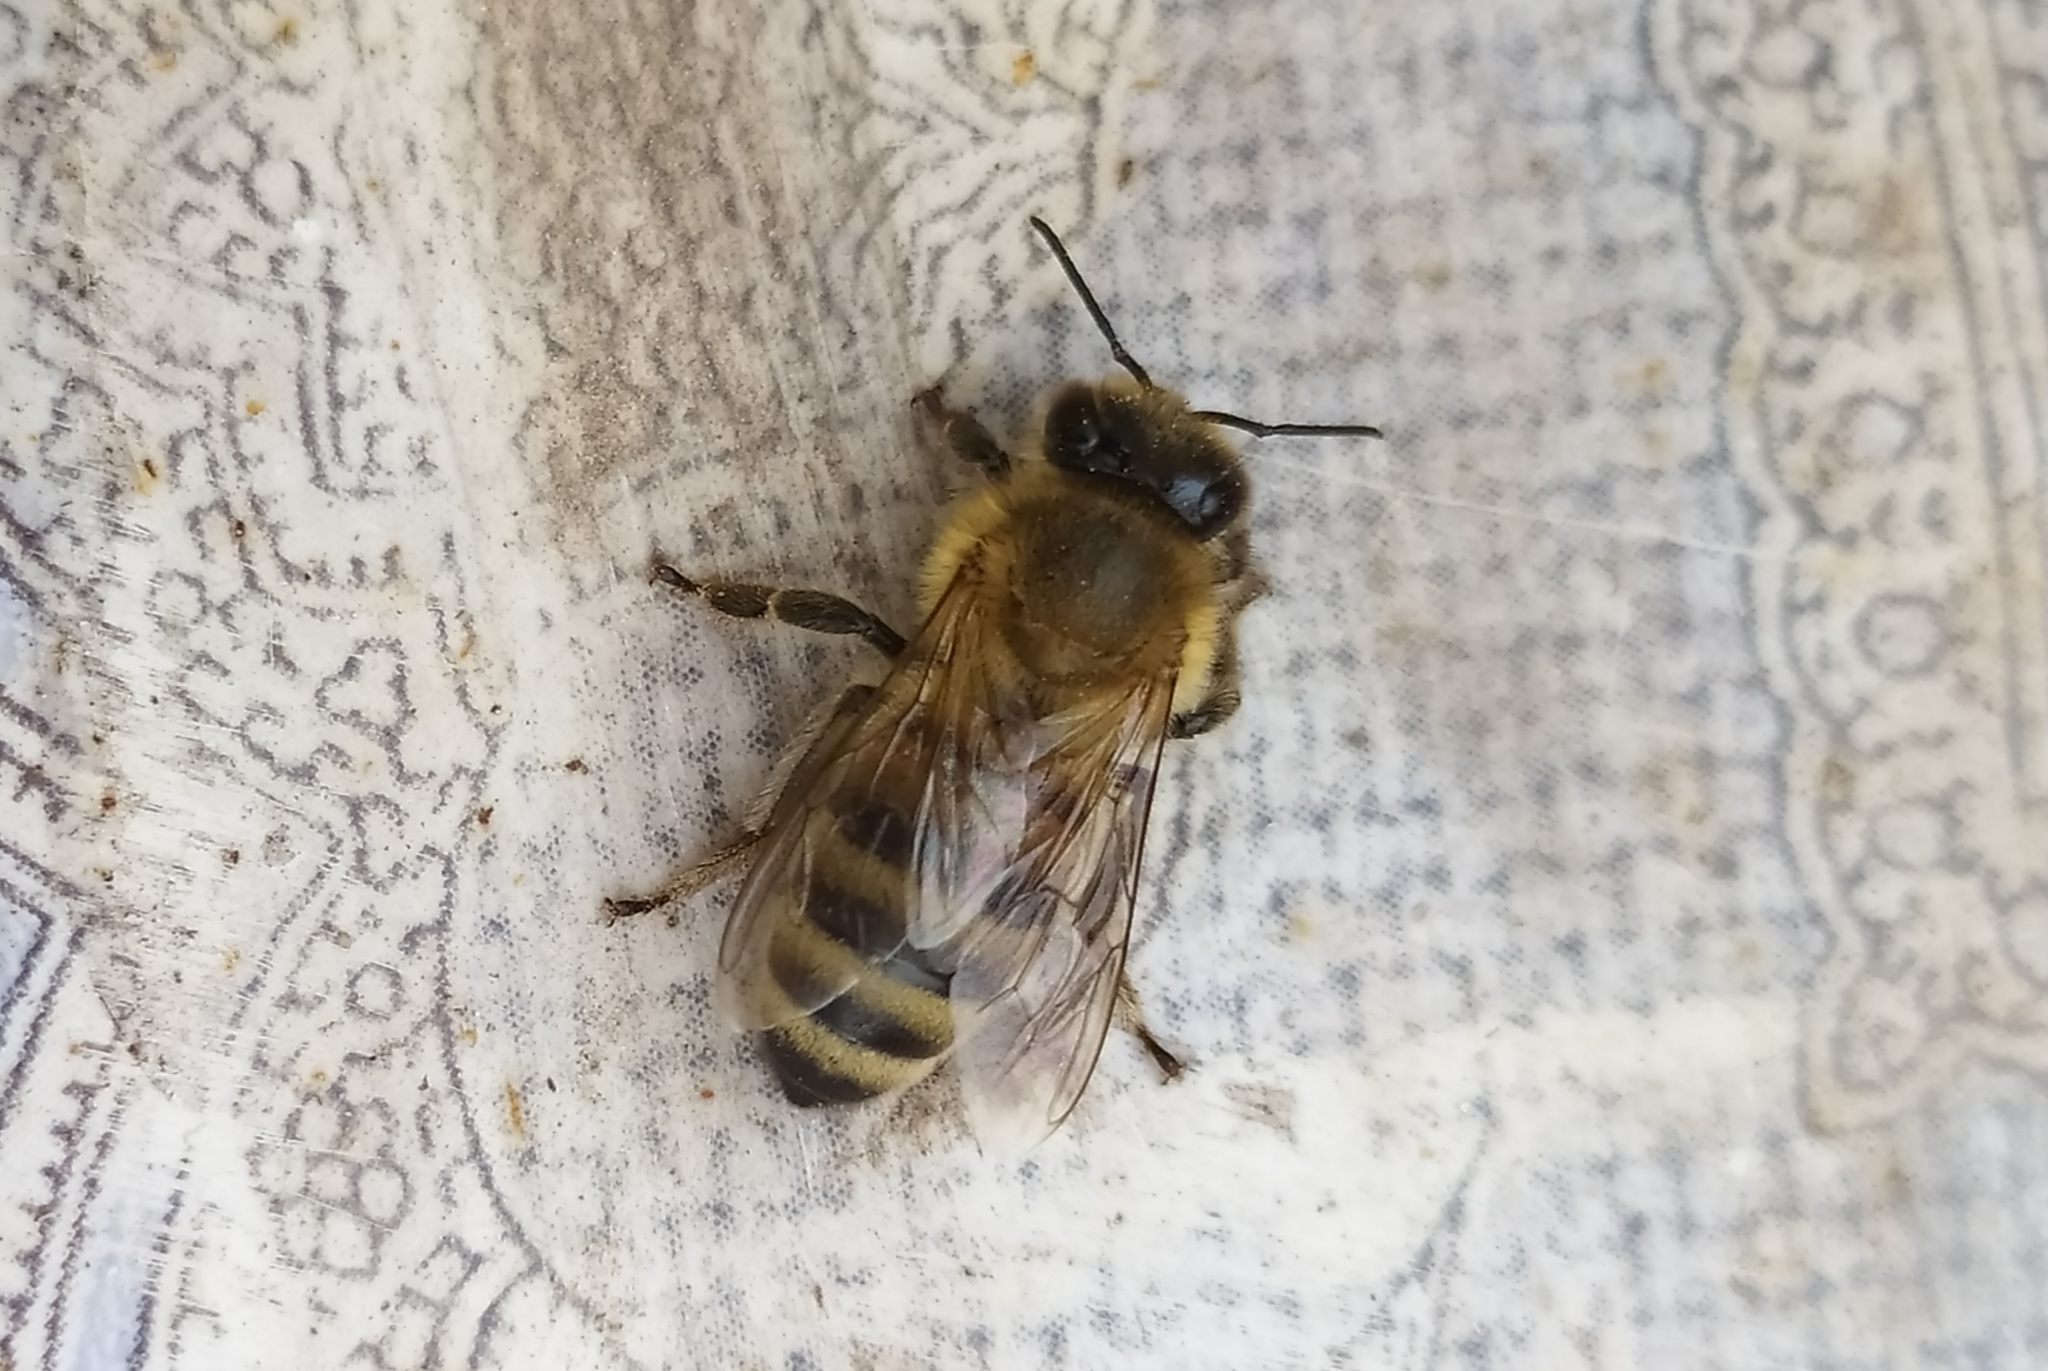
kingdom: Animalia
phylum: Arthropoda
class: Insecta
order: Hymenoptera
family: Apidae
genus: Apis
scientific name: Apis mellifera
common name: Honey bee
